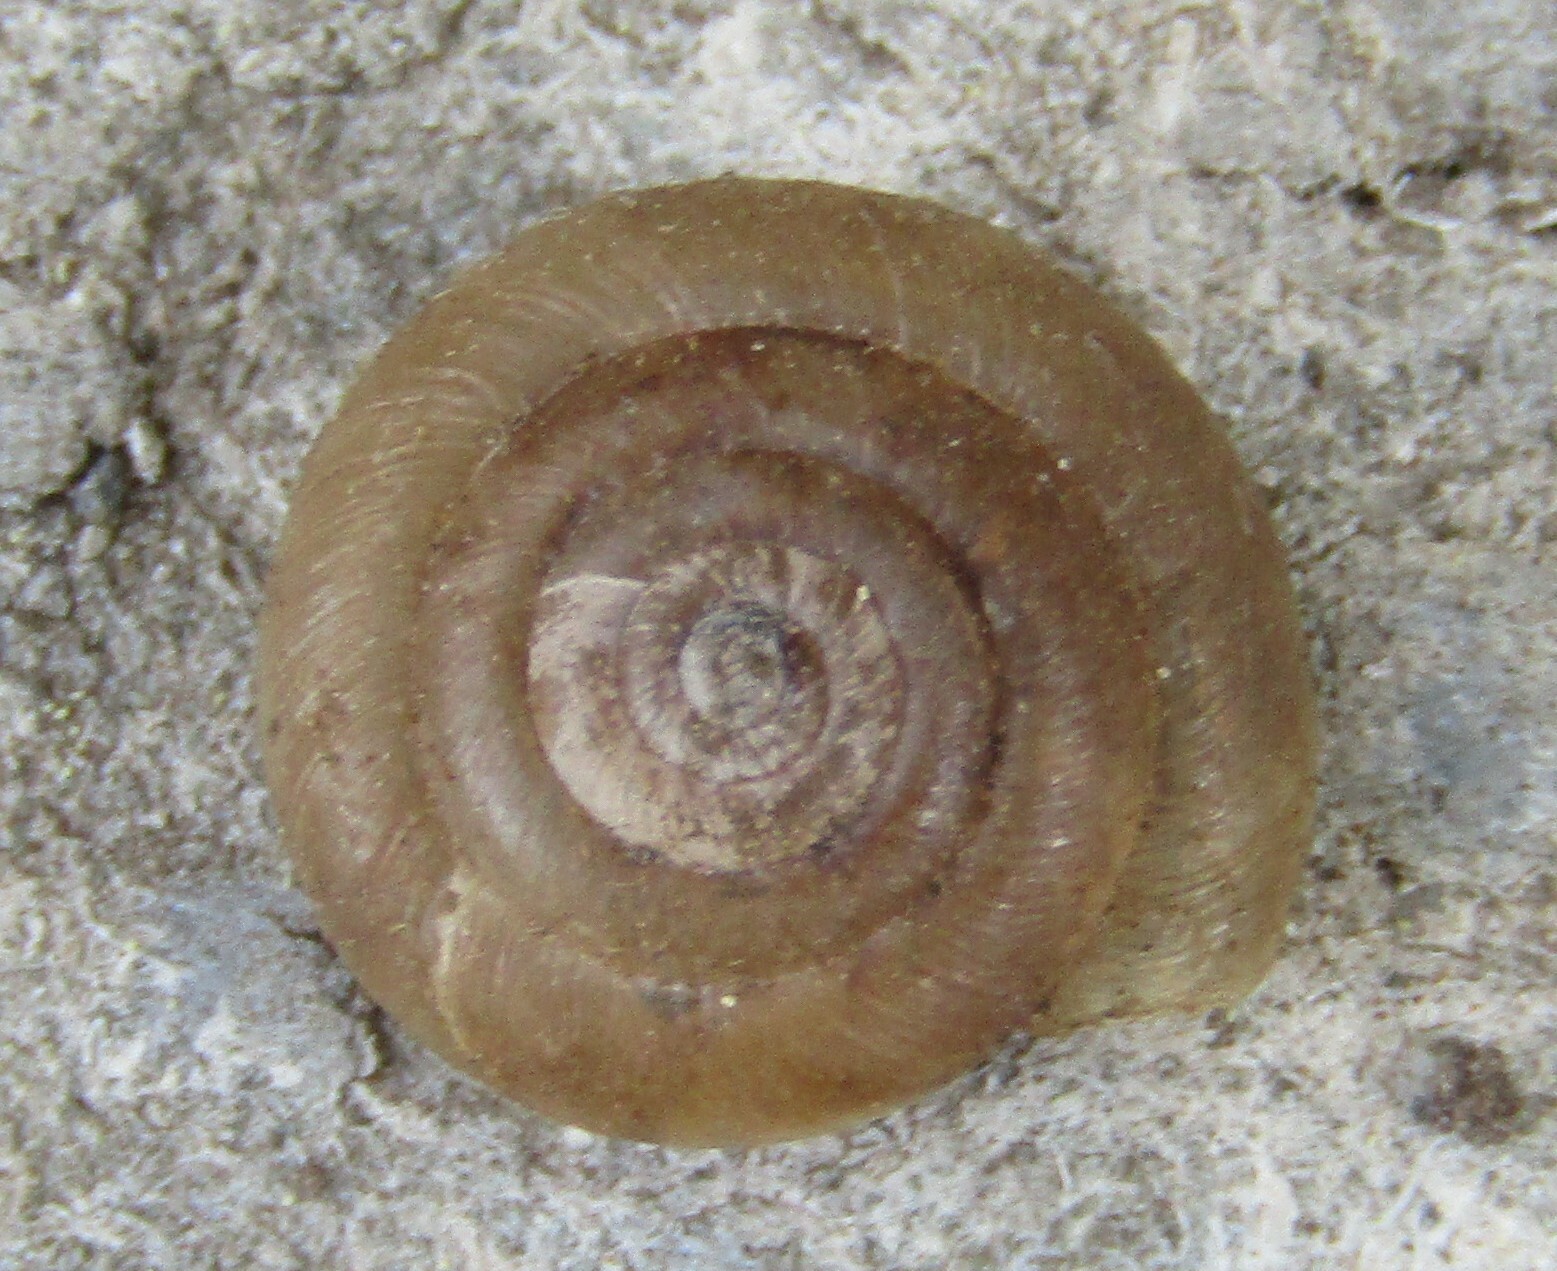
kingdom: Animalia
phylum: Mollusca
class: Gastropoda
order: Stylommatophora
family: Hygromiidae
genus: Trochulus
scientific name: Trochulus hispidus
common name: Hairy snail
